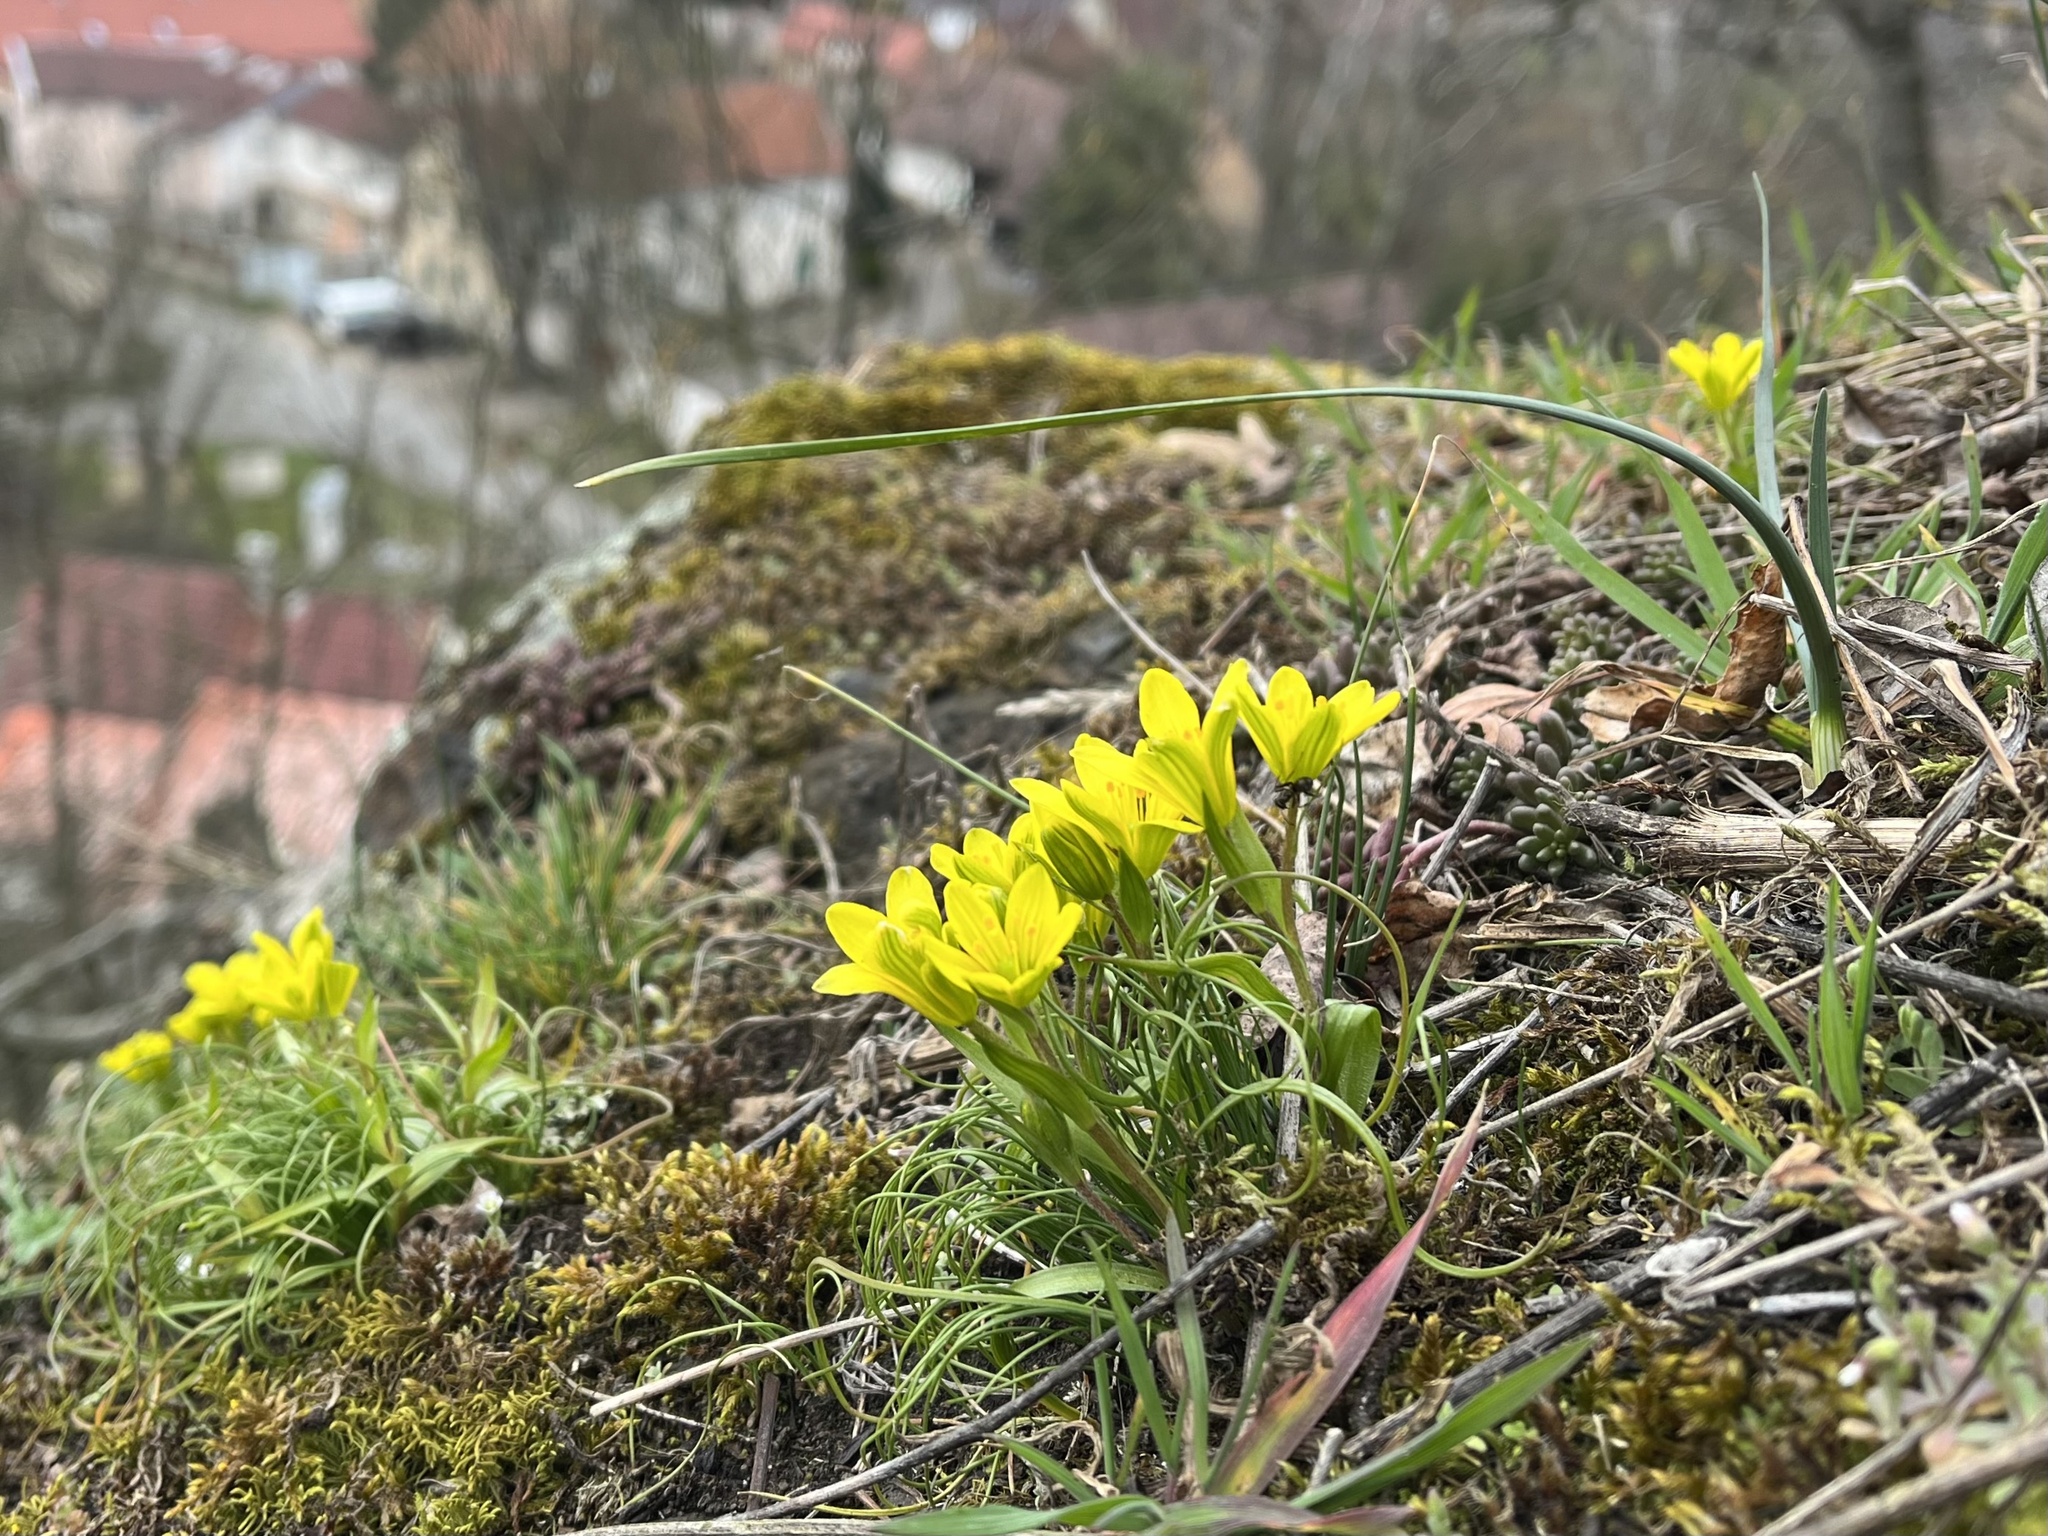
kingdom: Plantae
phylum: Tracheophyta
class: Liliopsida
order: Liliales
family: Liliaceae
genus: Gagea
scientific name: Gagea bohemica
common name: Early star-of-bethlehem
